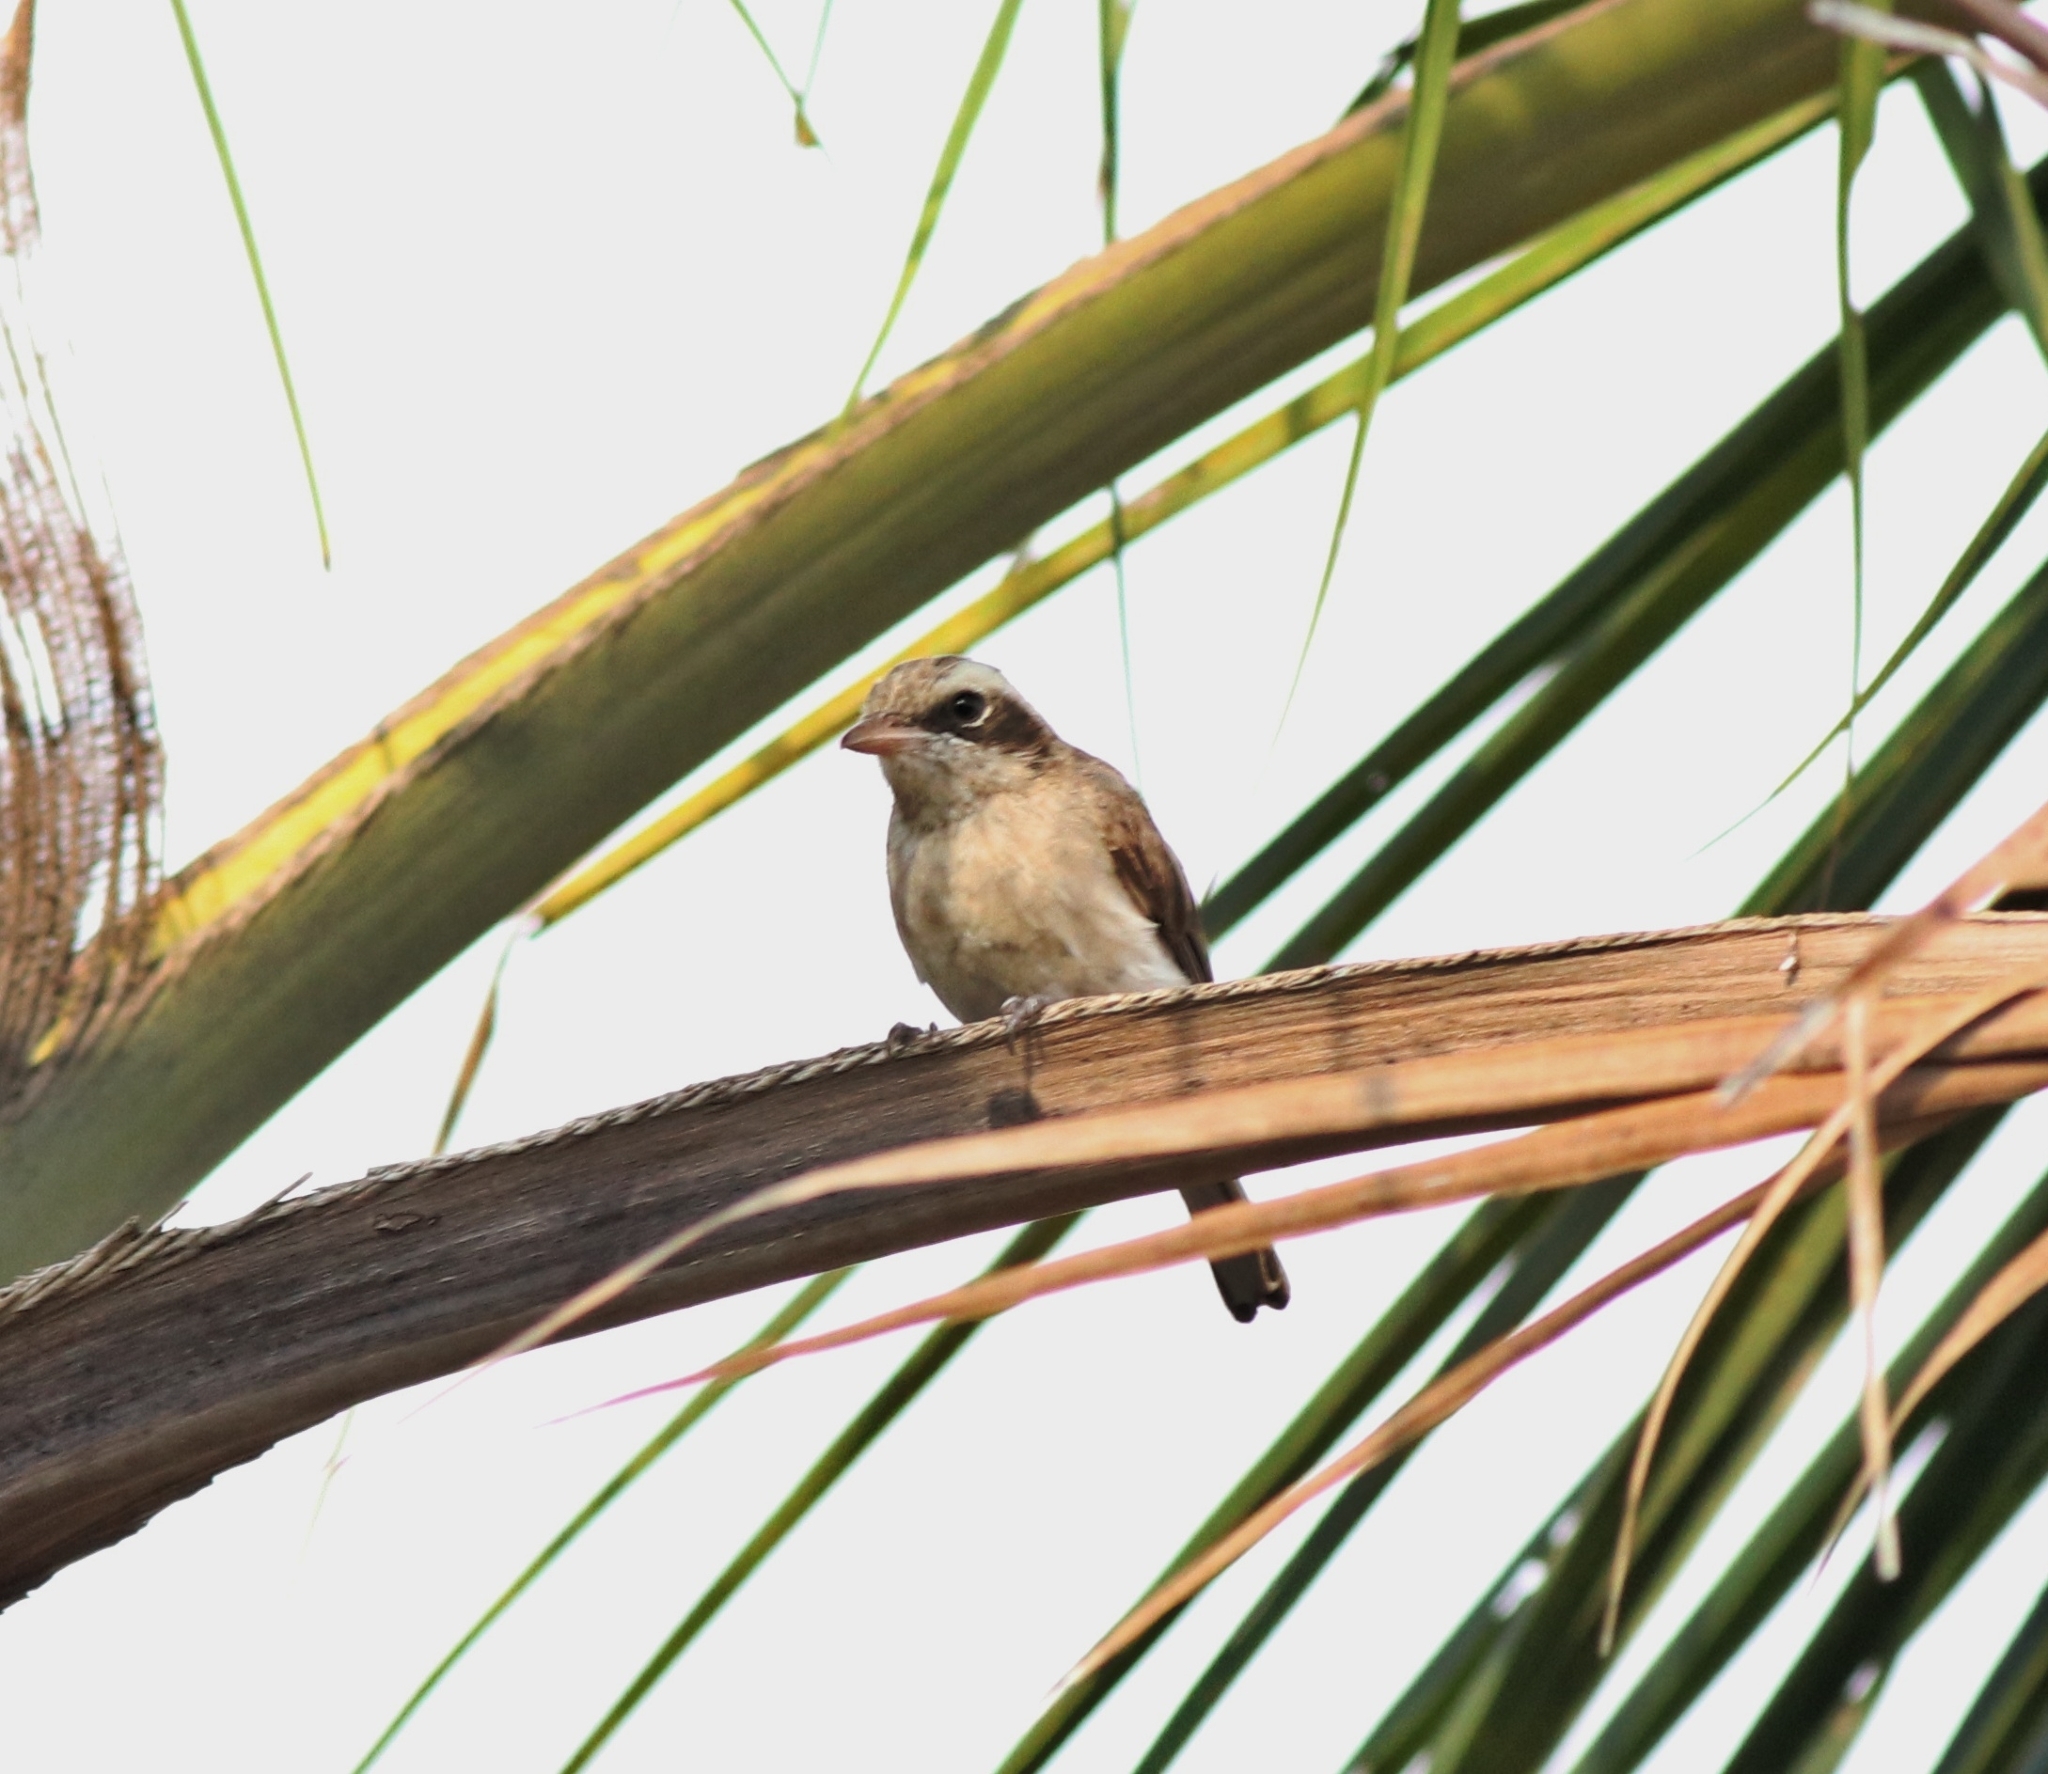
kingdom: Animalia
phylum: Chordata
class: Aves
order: Passeriformes
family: Tephrodornithidae
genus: Tephrodornis
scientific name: Tephrodornis pondicerianus
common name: Common woodshrike
